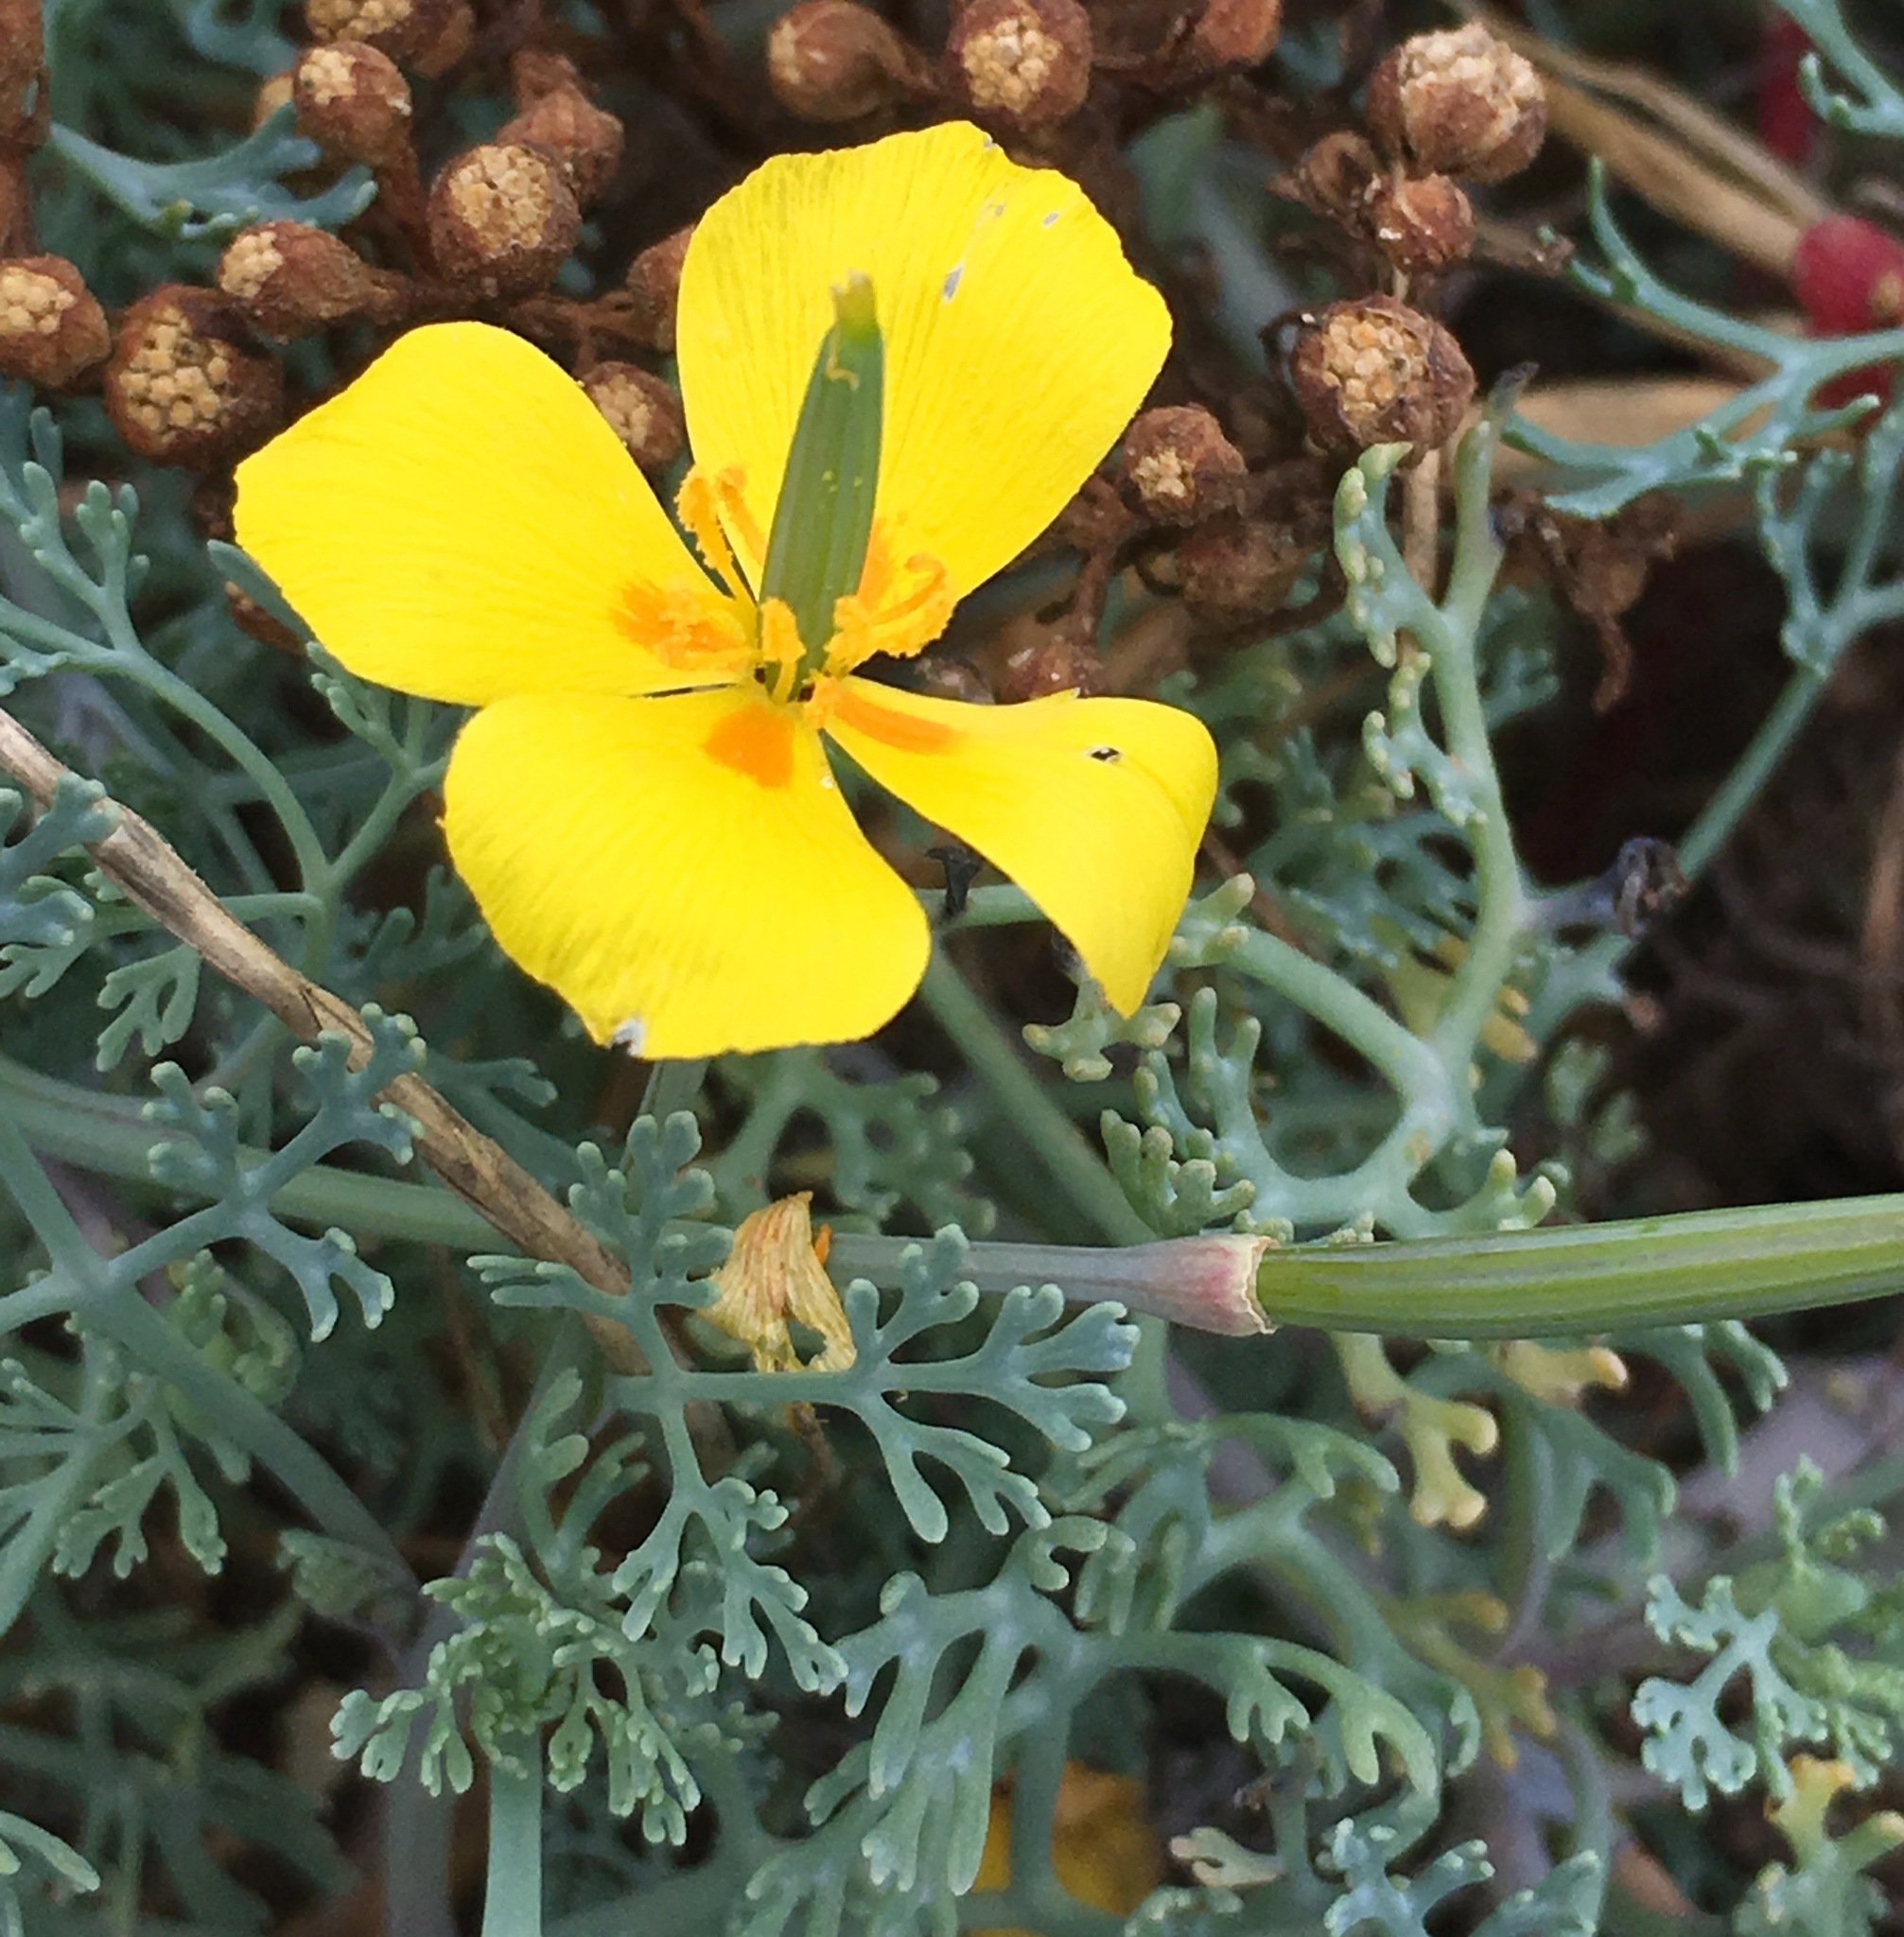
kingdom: Plantae
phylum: Tracheophyta
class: Magnoliopsida
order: Ranunculales
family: Papaveraceae
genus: Eschscholzia
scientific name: Eschscholzia ramosa
